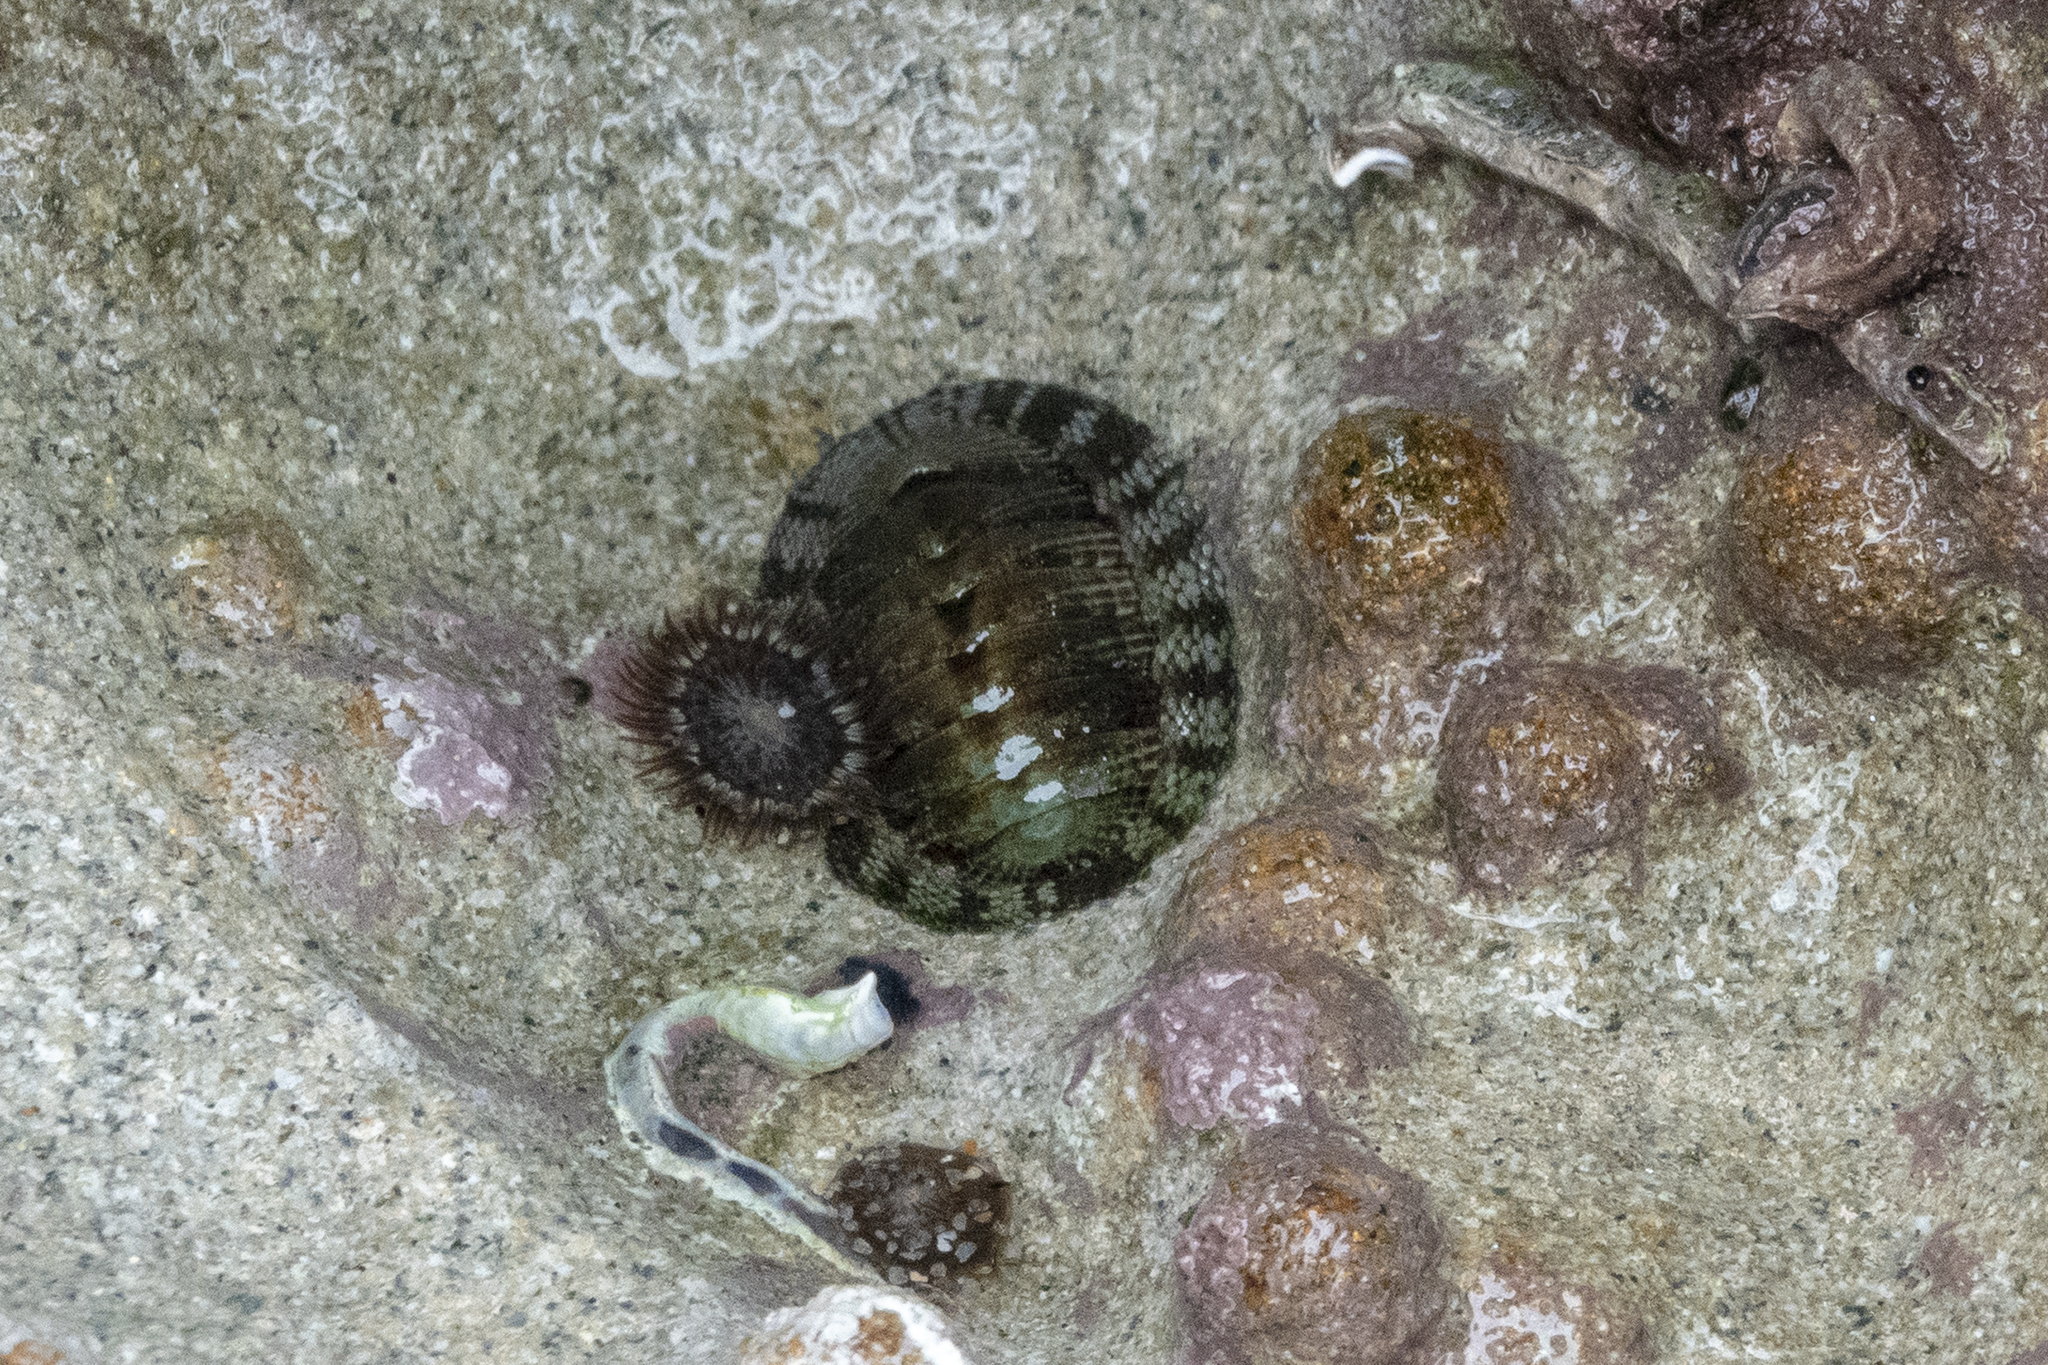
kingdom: Animalia
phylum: Mollusca
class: Polyplacophora
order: Chitonida
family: Chitonidae
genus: Sypharochiton
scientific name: Sypharochiton pelliserpentis
